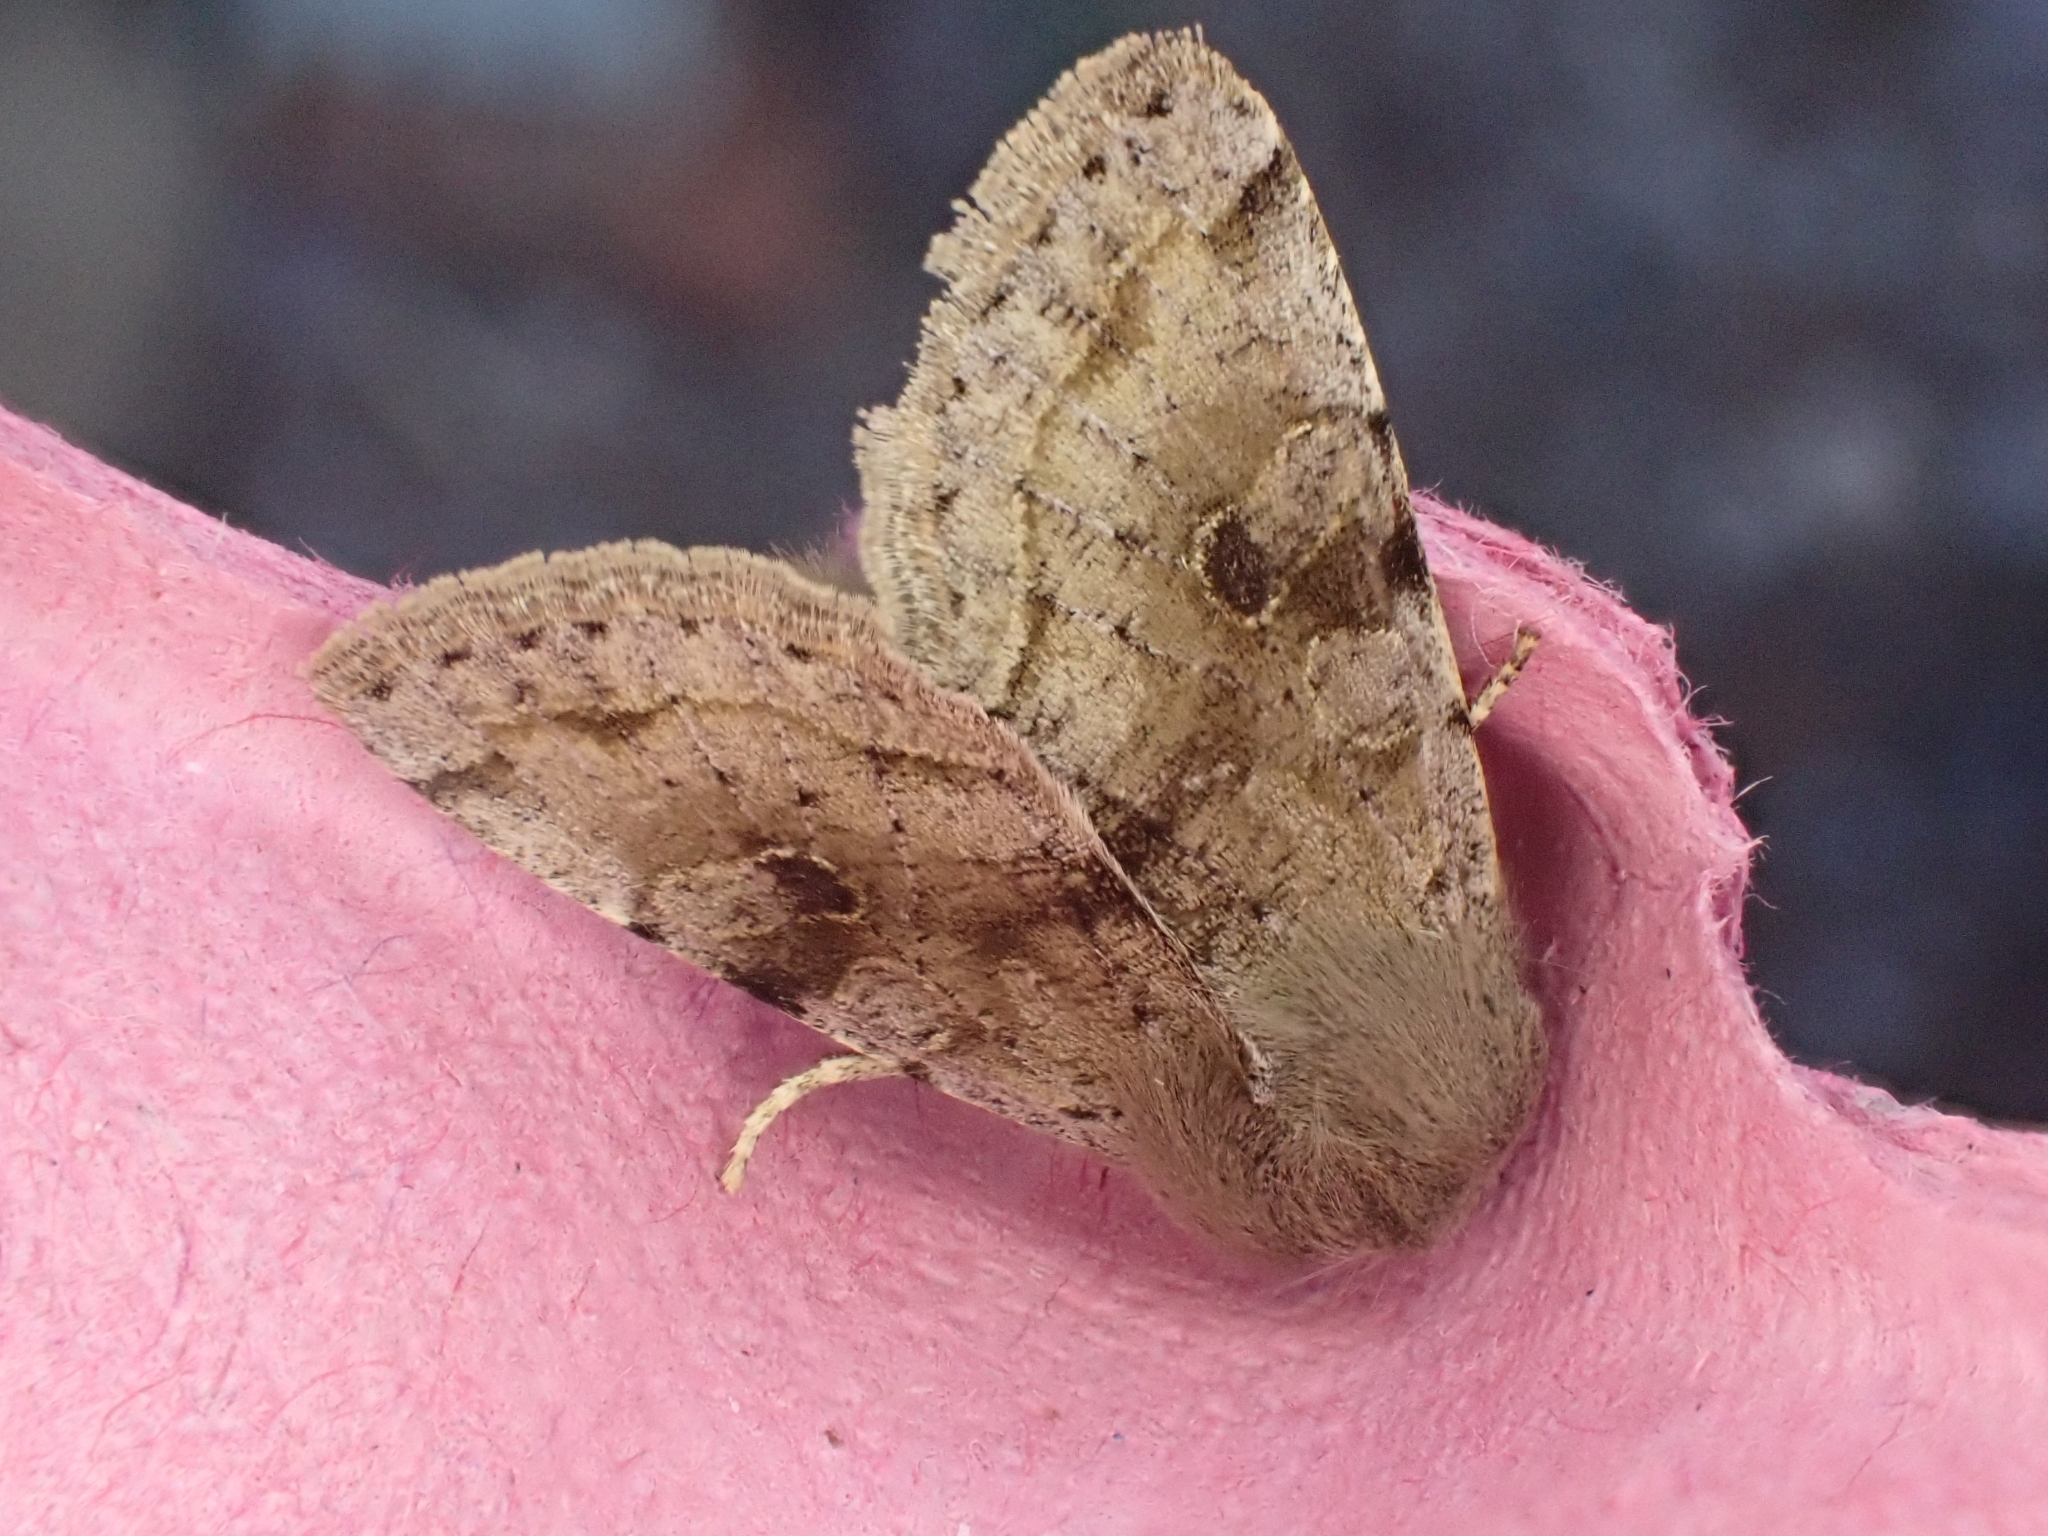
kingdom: Animalia
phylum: Arthropoda
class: Insecta
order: Lepidoptera
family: Noctuidae
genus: Orthosia
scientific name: Orthosia incerta
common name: Clouded drab
